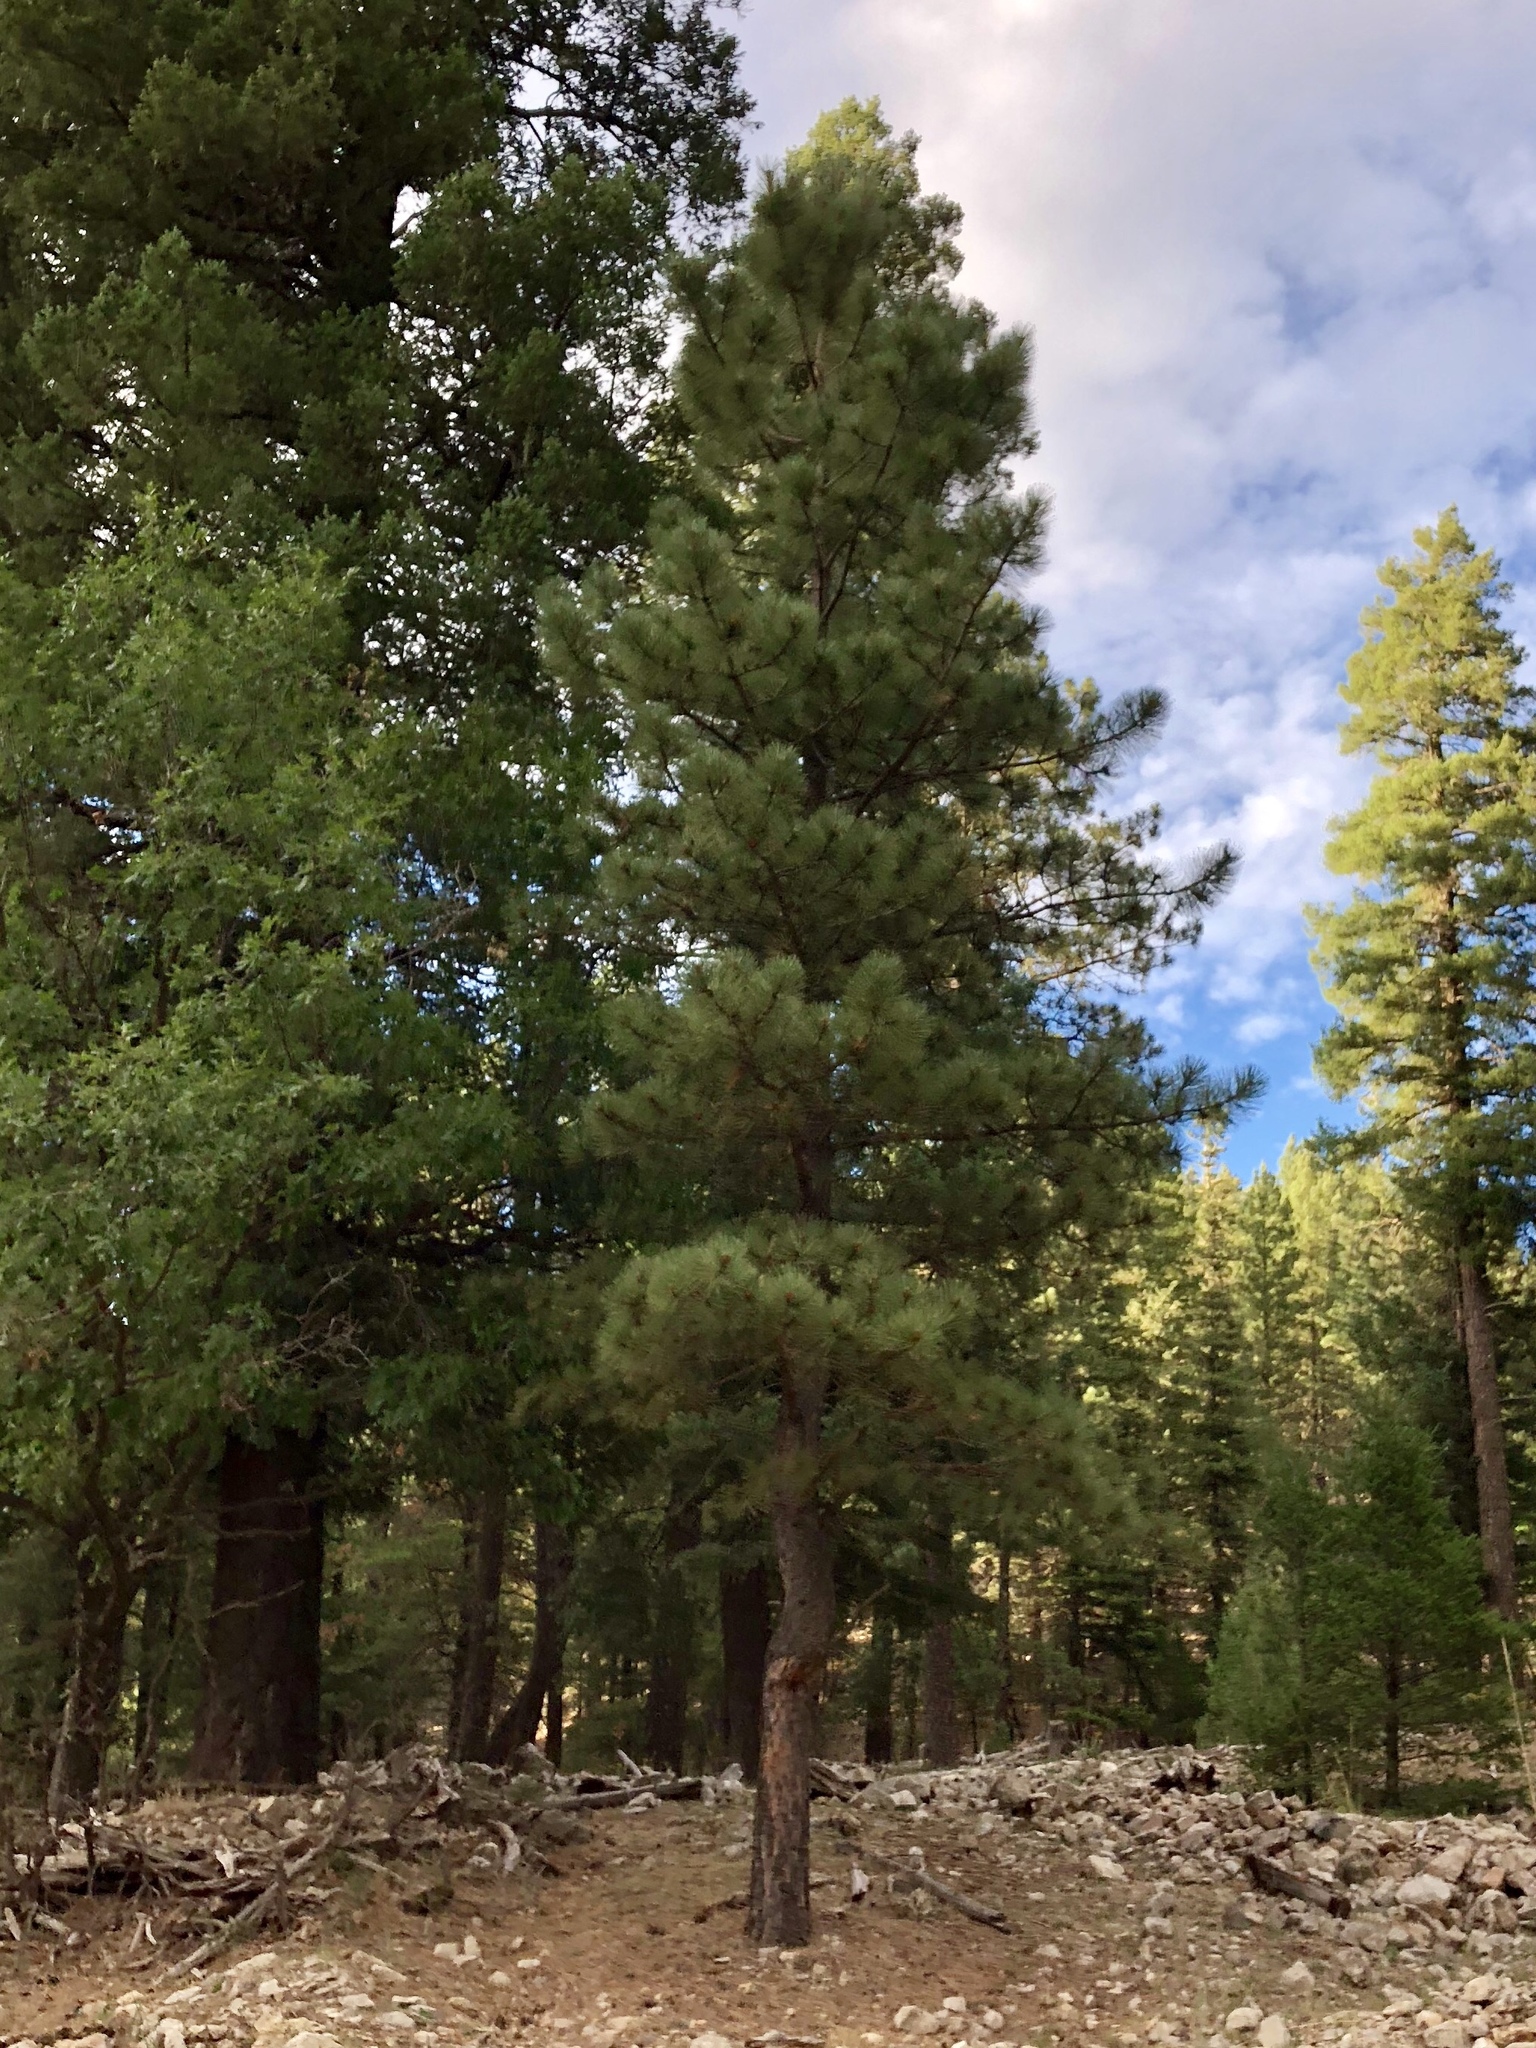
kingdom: Plantae
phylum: Tracheophyta
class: Pinopsida
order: Pinales
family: Pinaceae
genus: Pinus
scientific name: Pinus ponderosa
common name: Western yellow-pine
